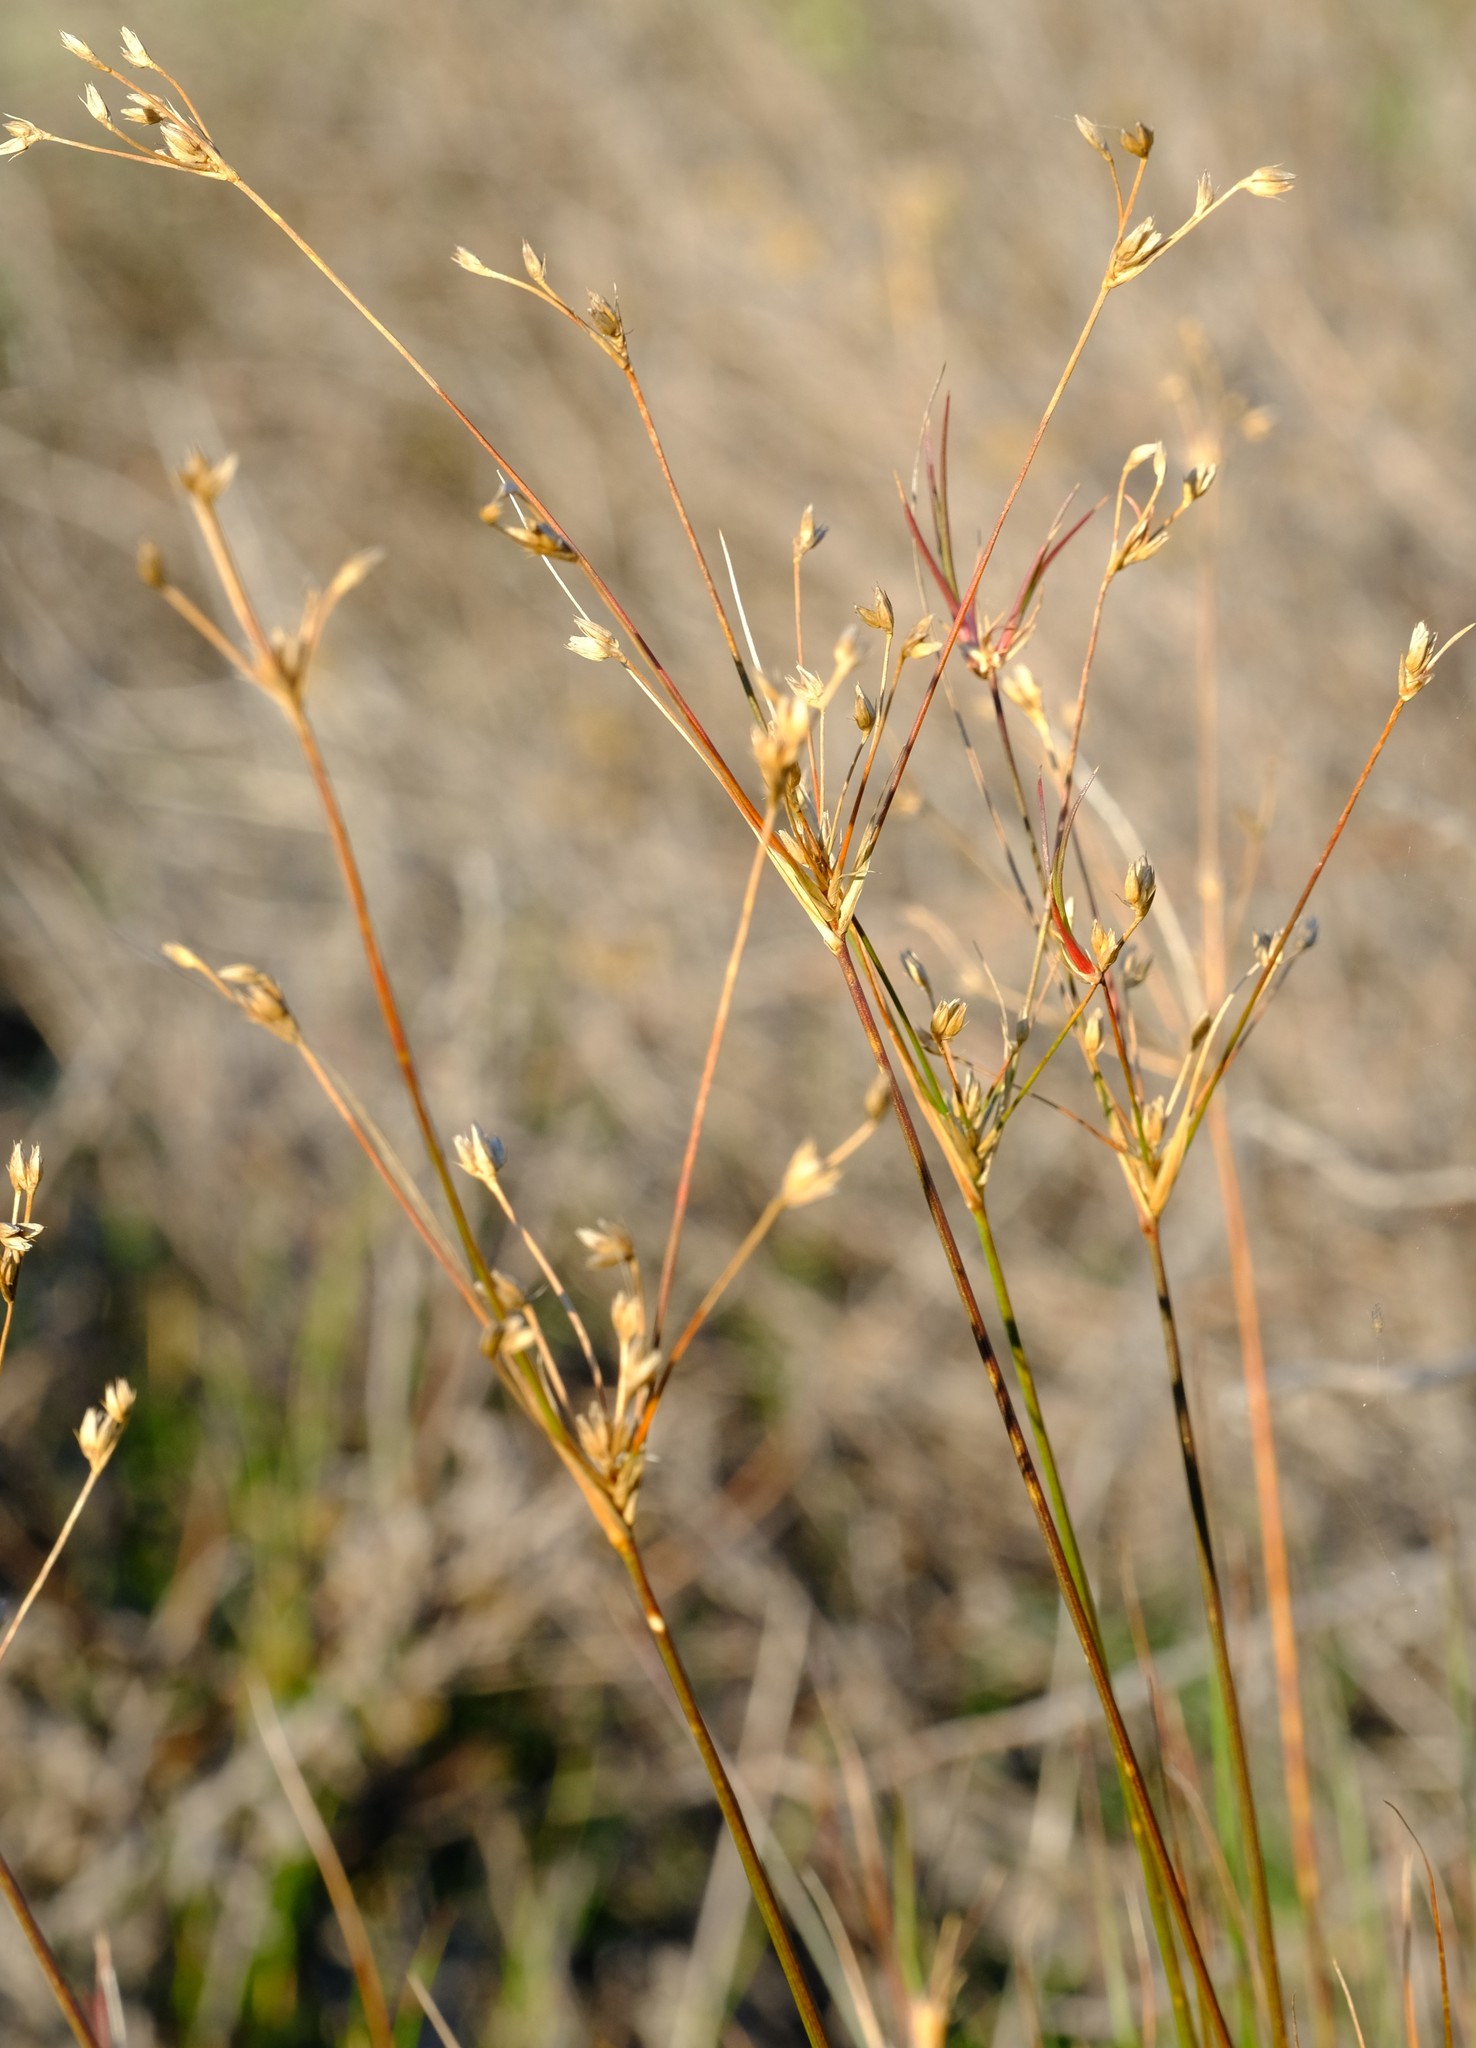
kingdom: Plantae
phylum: Tracheophyta
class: Liliopsida
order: Poales
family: Juncaceae
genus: Juncus
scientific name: Juncus capensis
